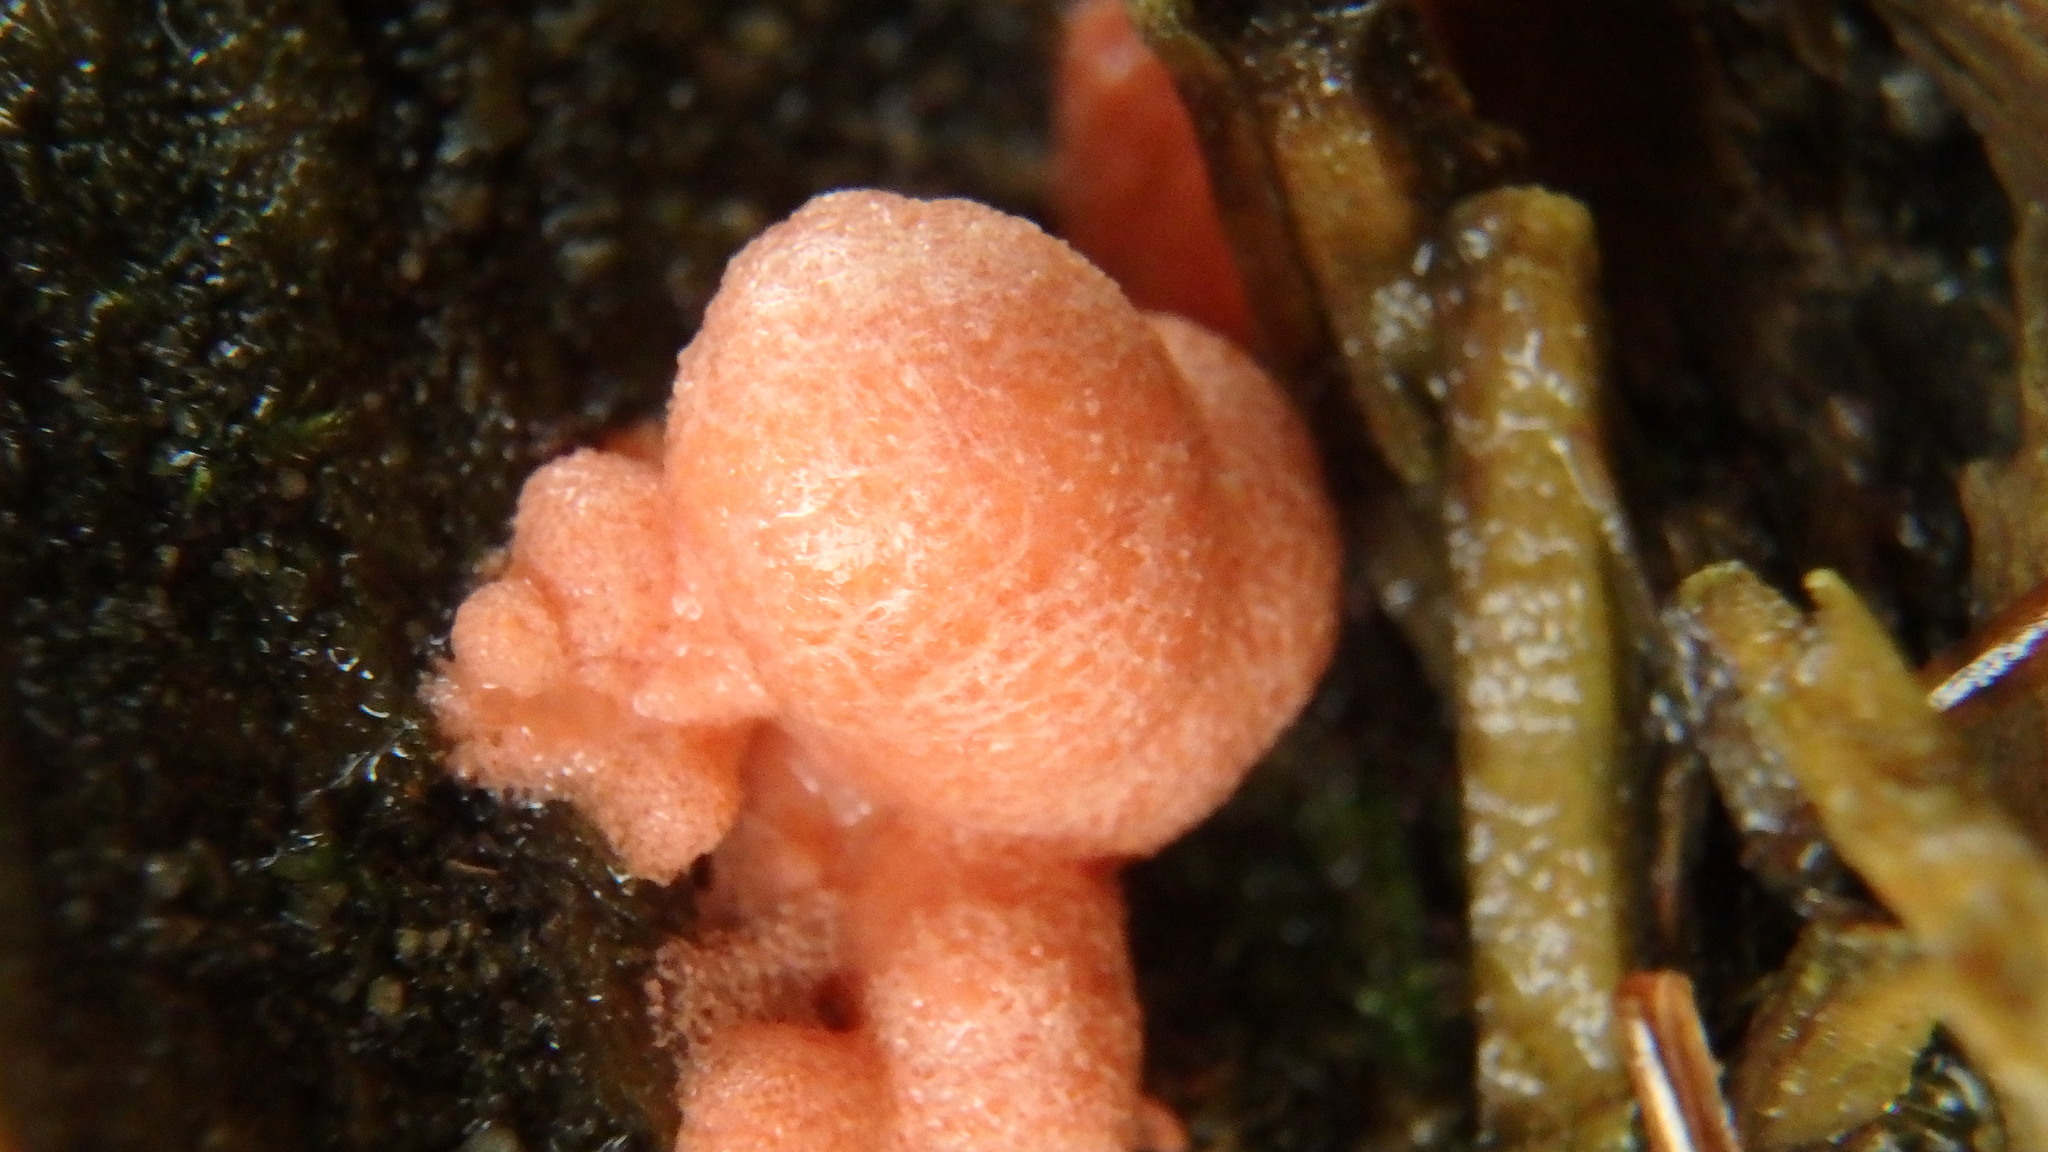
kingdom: Protozoa
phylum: Mycetozoa
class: Myxomycetes
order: Cribrariales
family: Tubiferaceae
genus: Lycogala
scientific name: Lycogala epidendrum
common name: Wolf's milk
